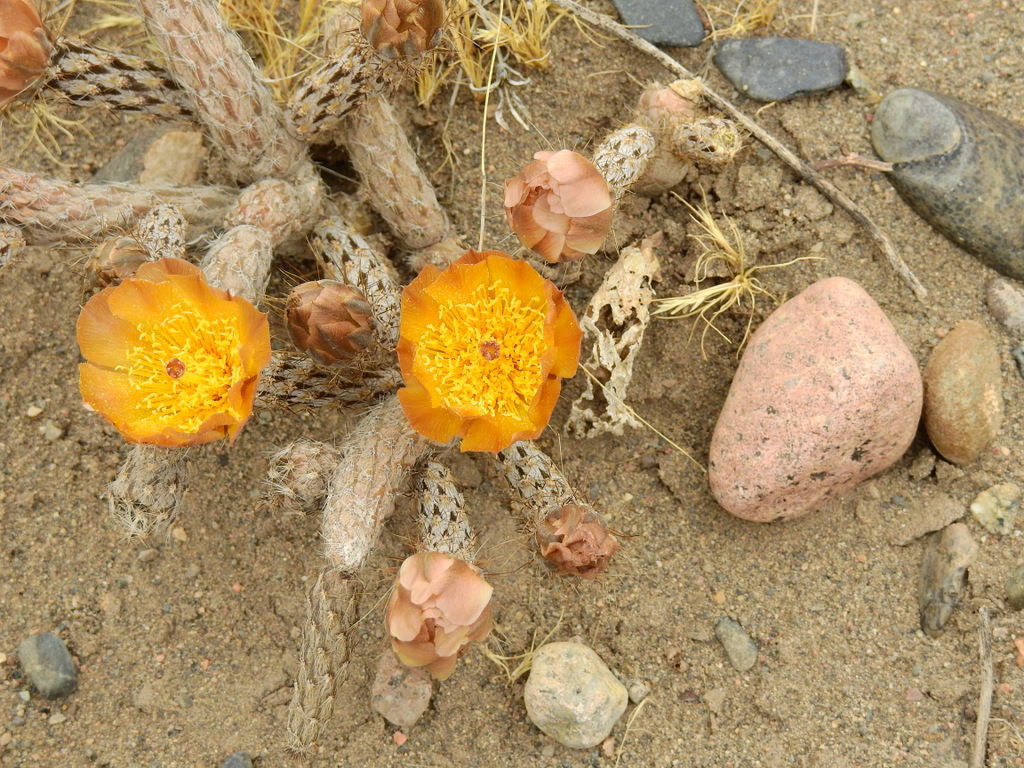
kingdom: Plantae
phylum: Tracheophyta
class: Magnoliopsida
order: Caryophyllales
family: Cactaceae
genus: Pterocactus
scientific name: Pterocactus tuberosus
